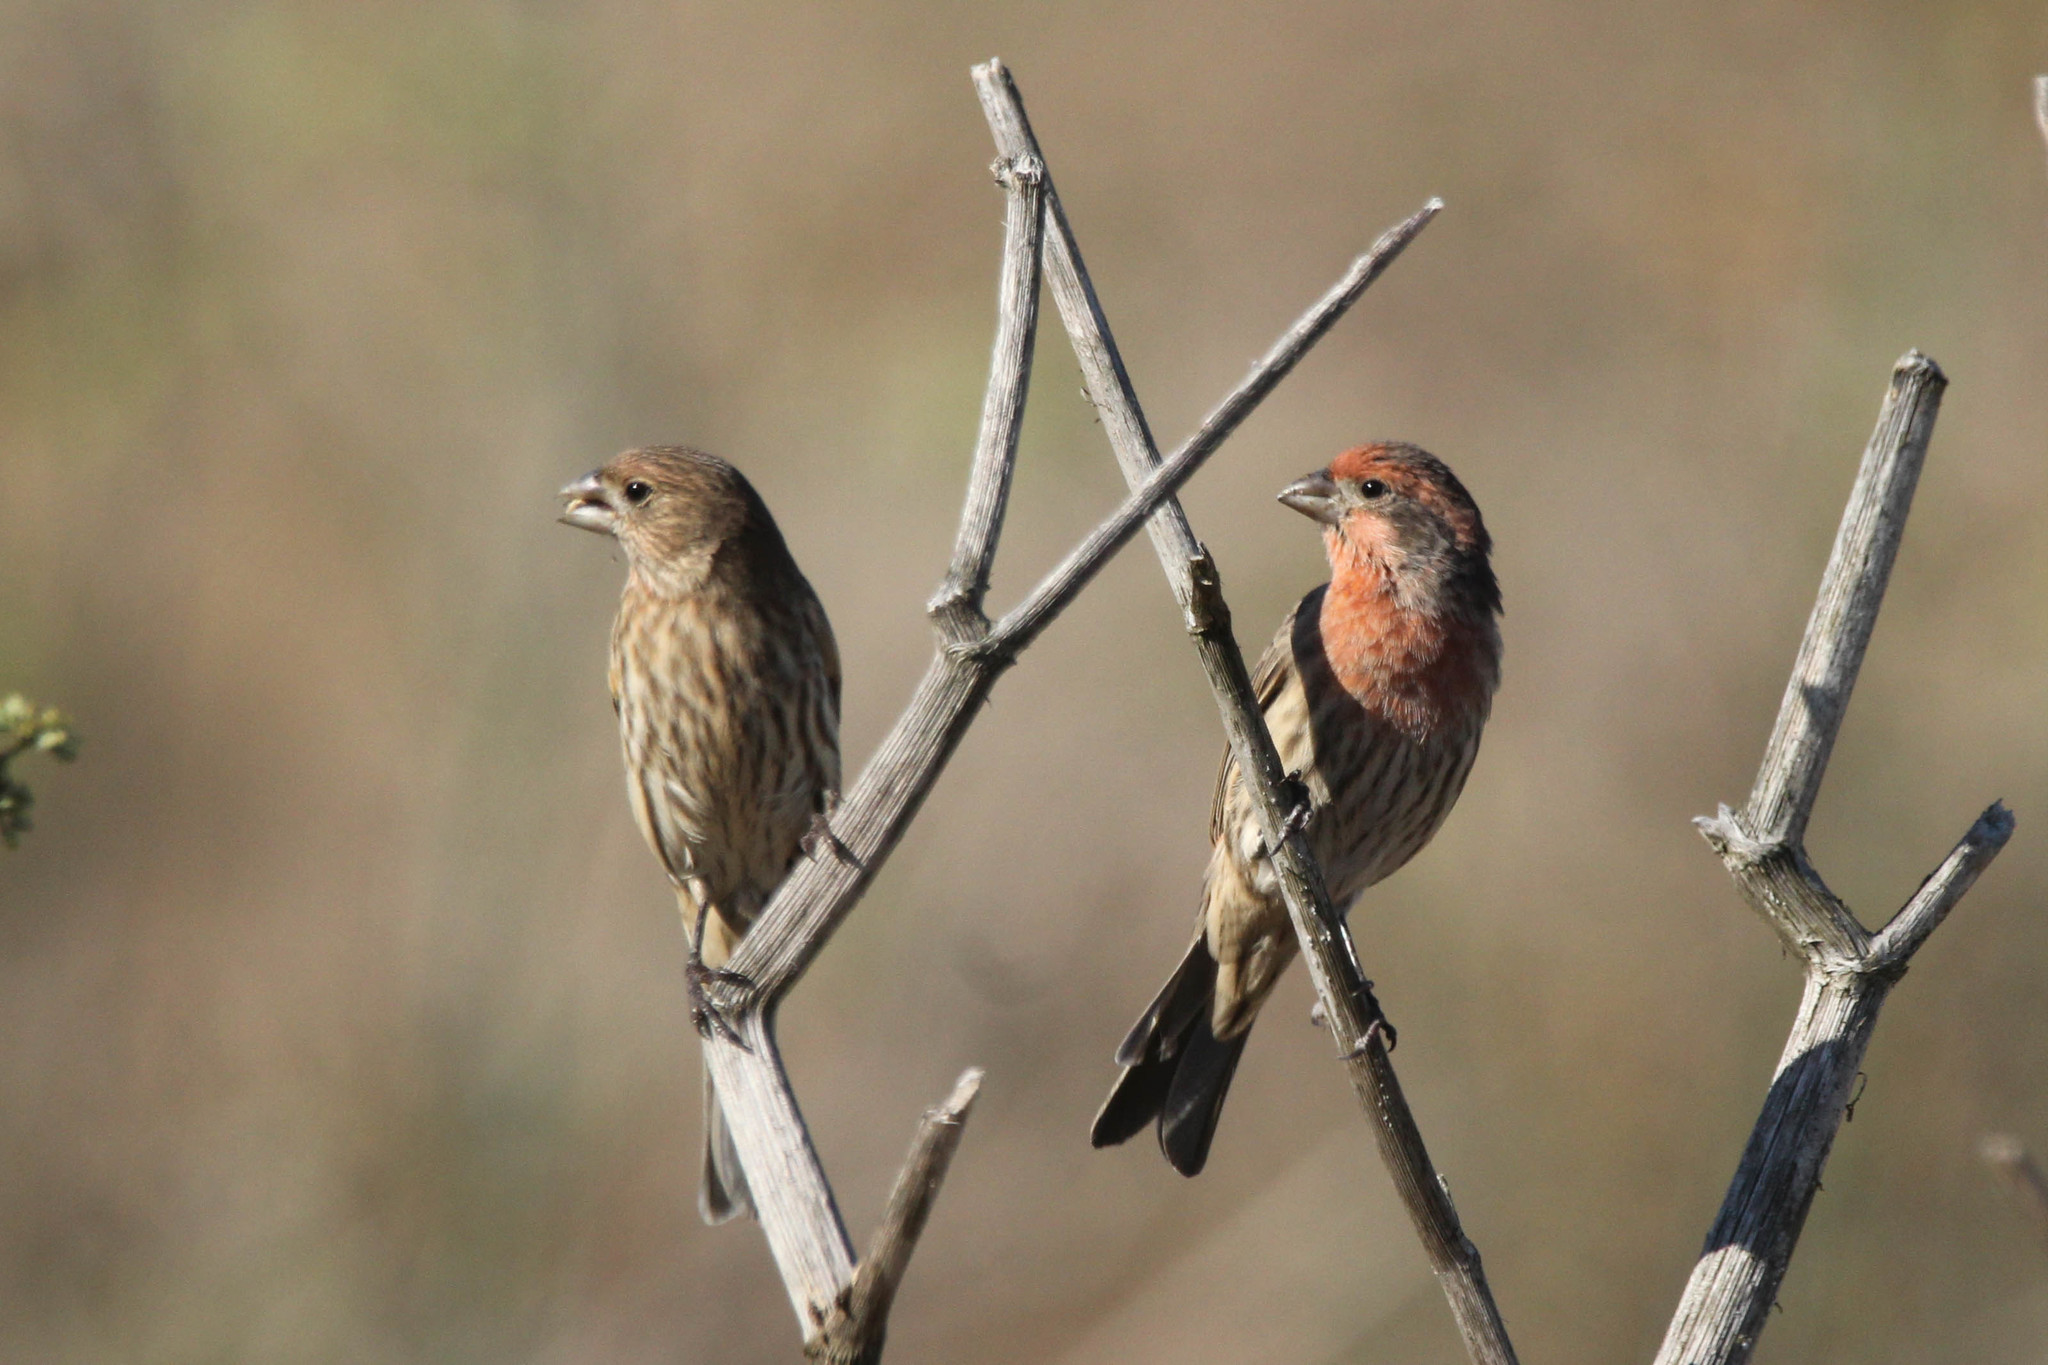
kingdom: Animalia
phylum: Chordata
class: Aves
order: Passeriformes
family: Fringillidae
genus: Haemorhous
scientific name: Haemorhous mexicanus
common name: House finch
